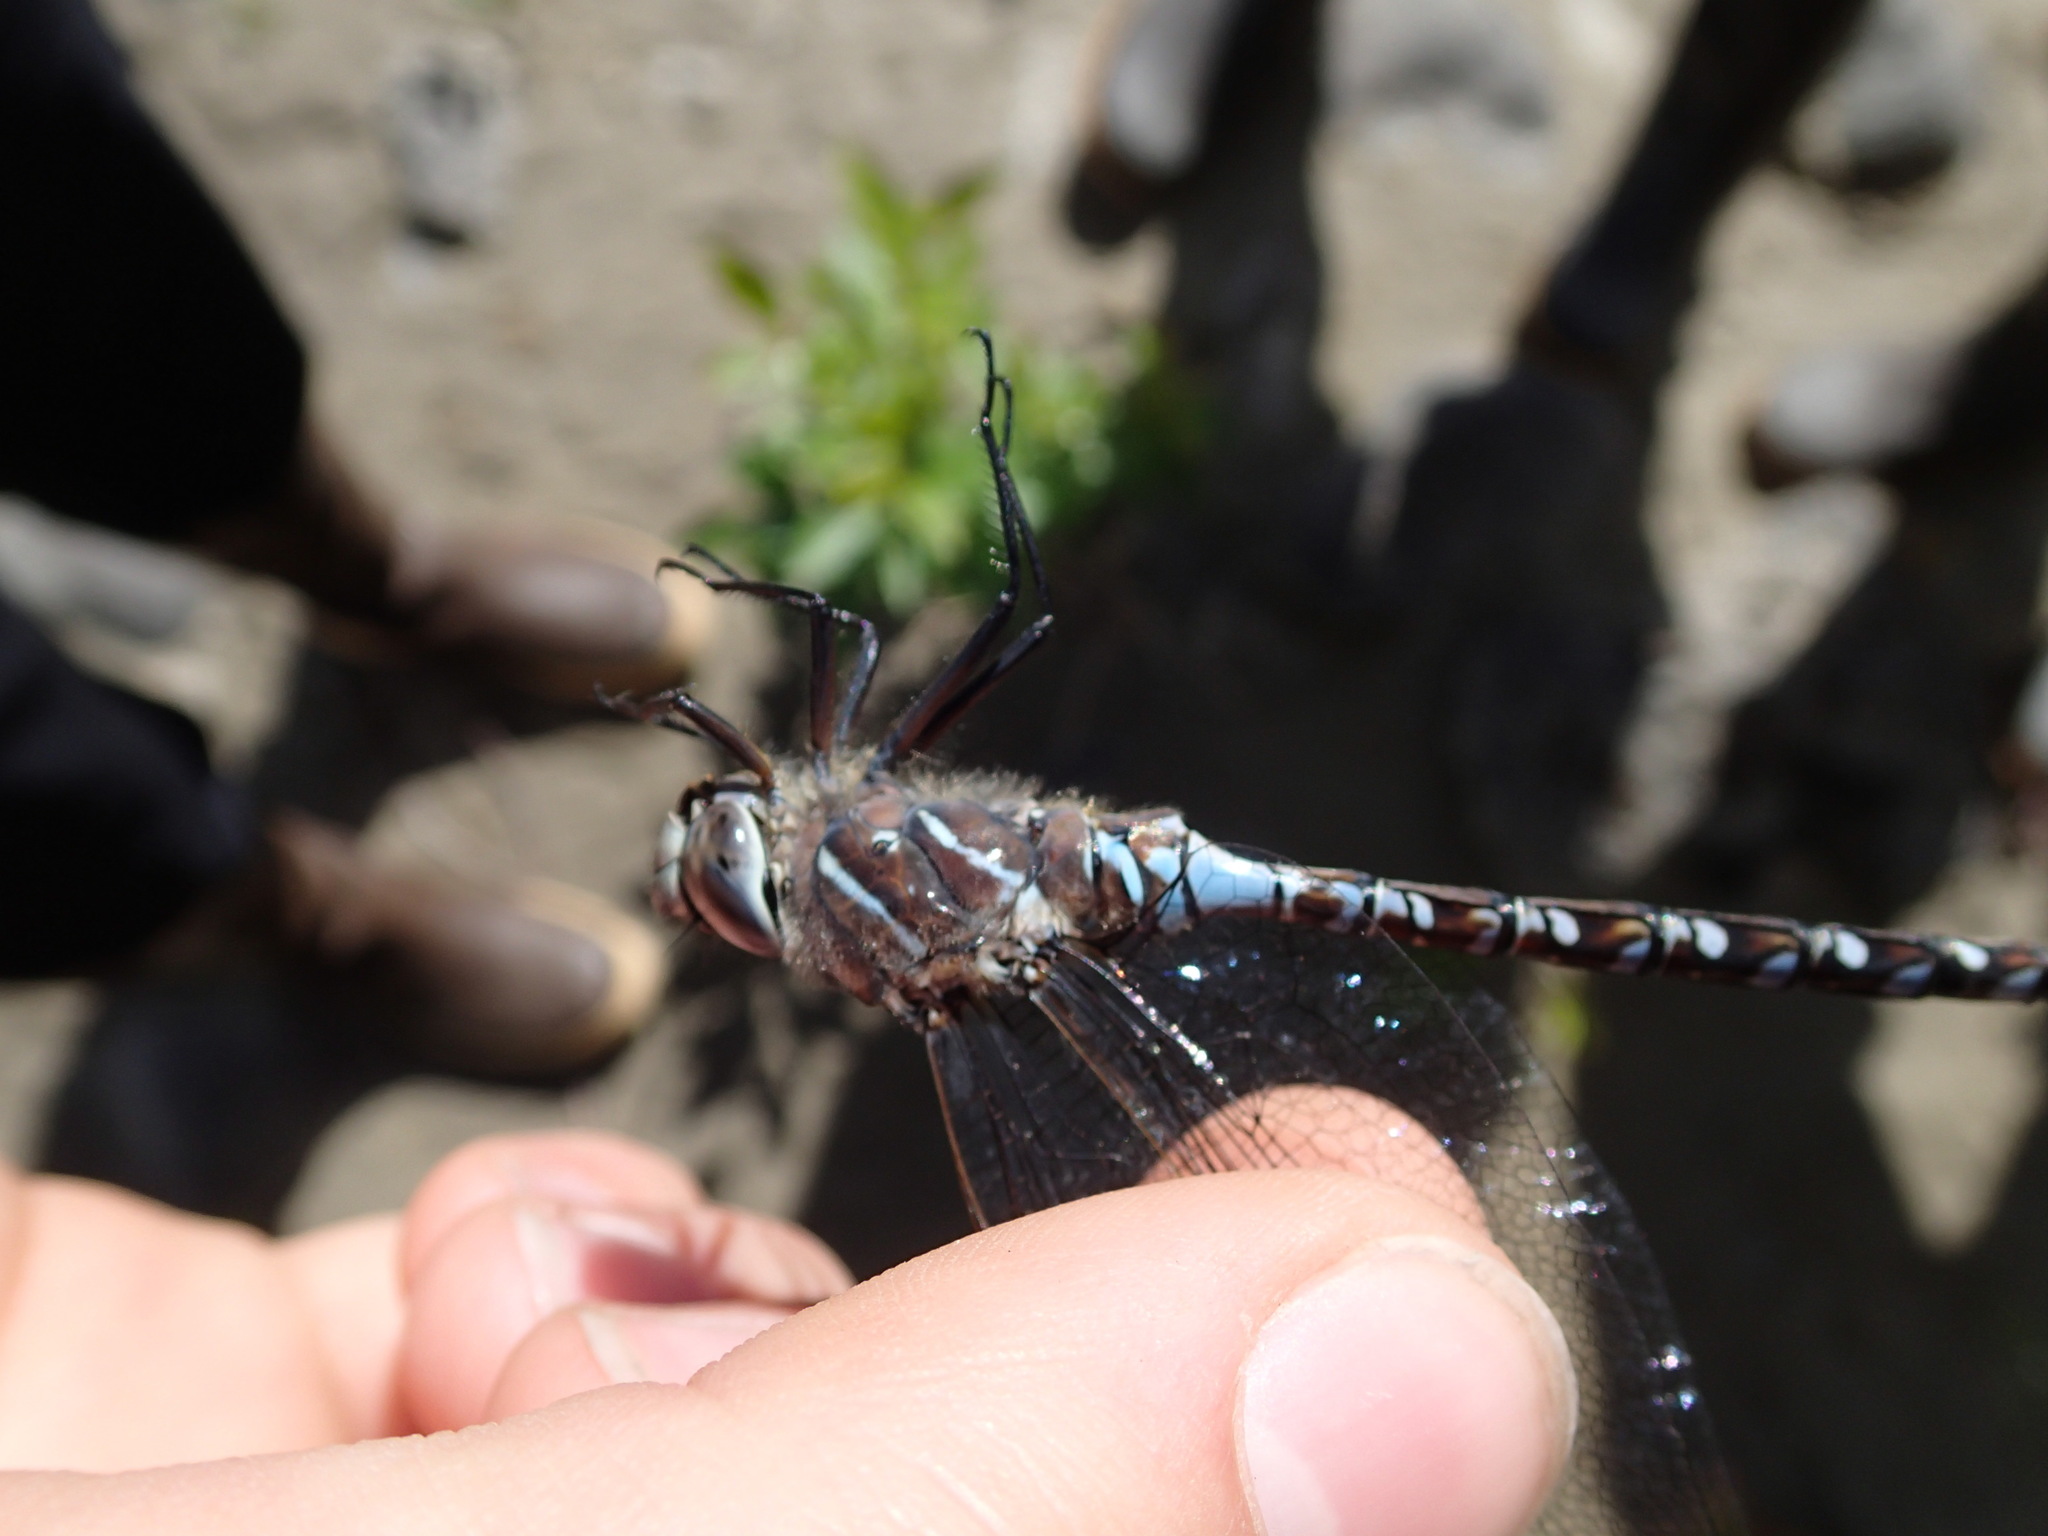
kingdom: Animalia
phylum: Arthropoda
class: Insecta
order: Odonata
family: Aeshnidae
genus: Aeshna
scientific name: Aeshna interrupta
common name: Variable darner
